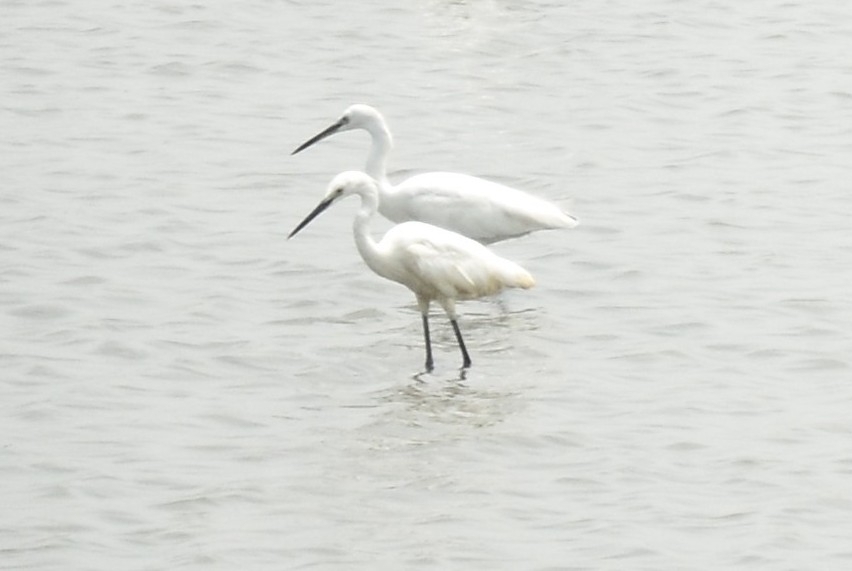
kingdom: Animalia
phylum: Chordata
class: Aves
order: Pelecaniformes
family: Ardeidae
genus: Egretta
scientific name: Egretta garzetta
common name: Little egret
